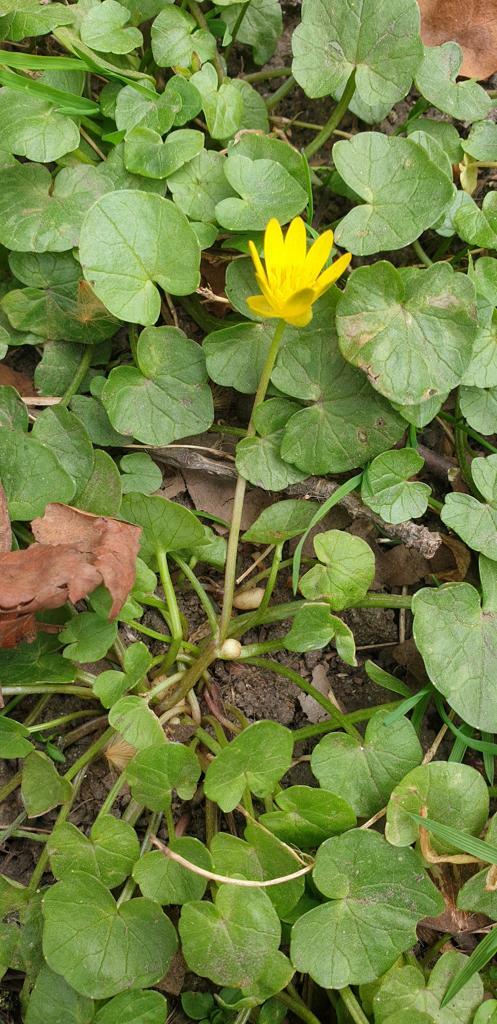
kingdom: Plantae
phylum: Tracheophyta
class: Magnoliopsida
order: Ranunculales
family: Ranunculaceae
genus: Ficaria
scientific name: Ficaria verna
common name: Lesser celandine
